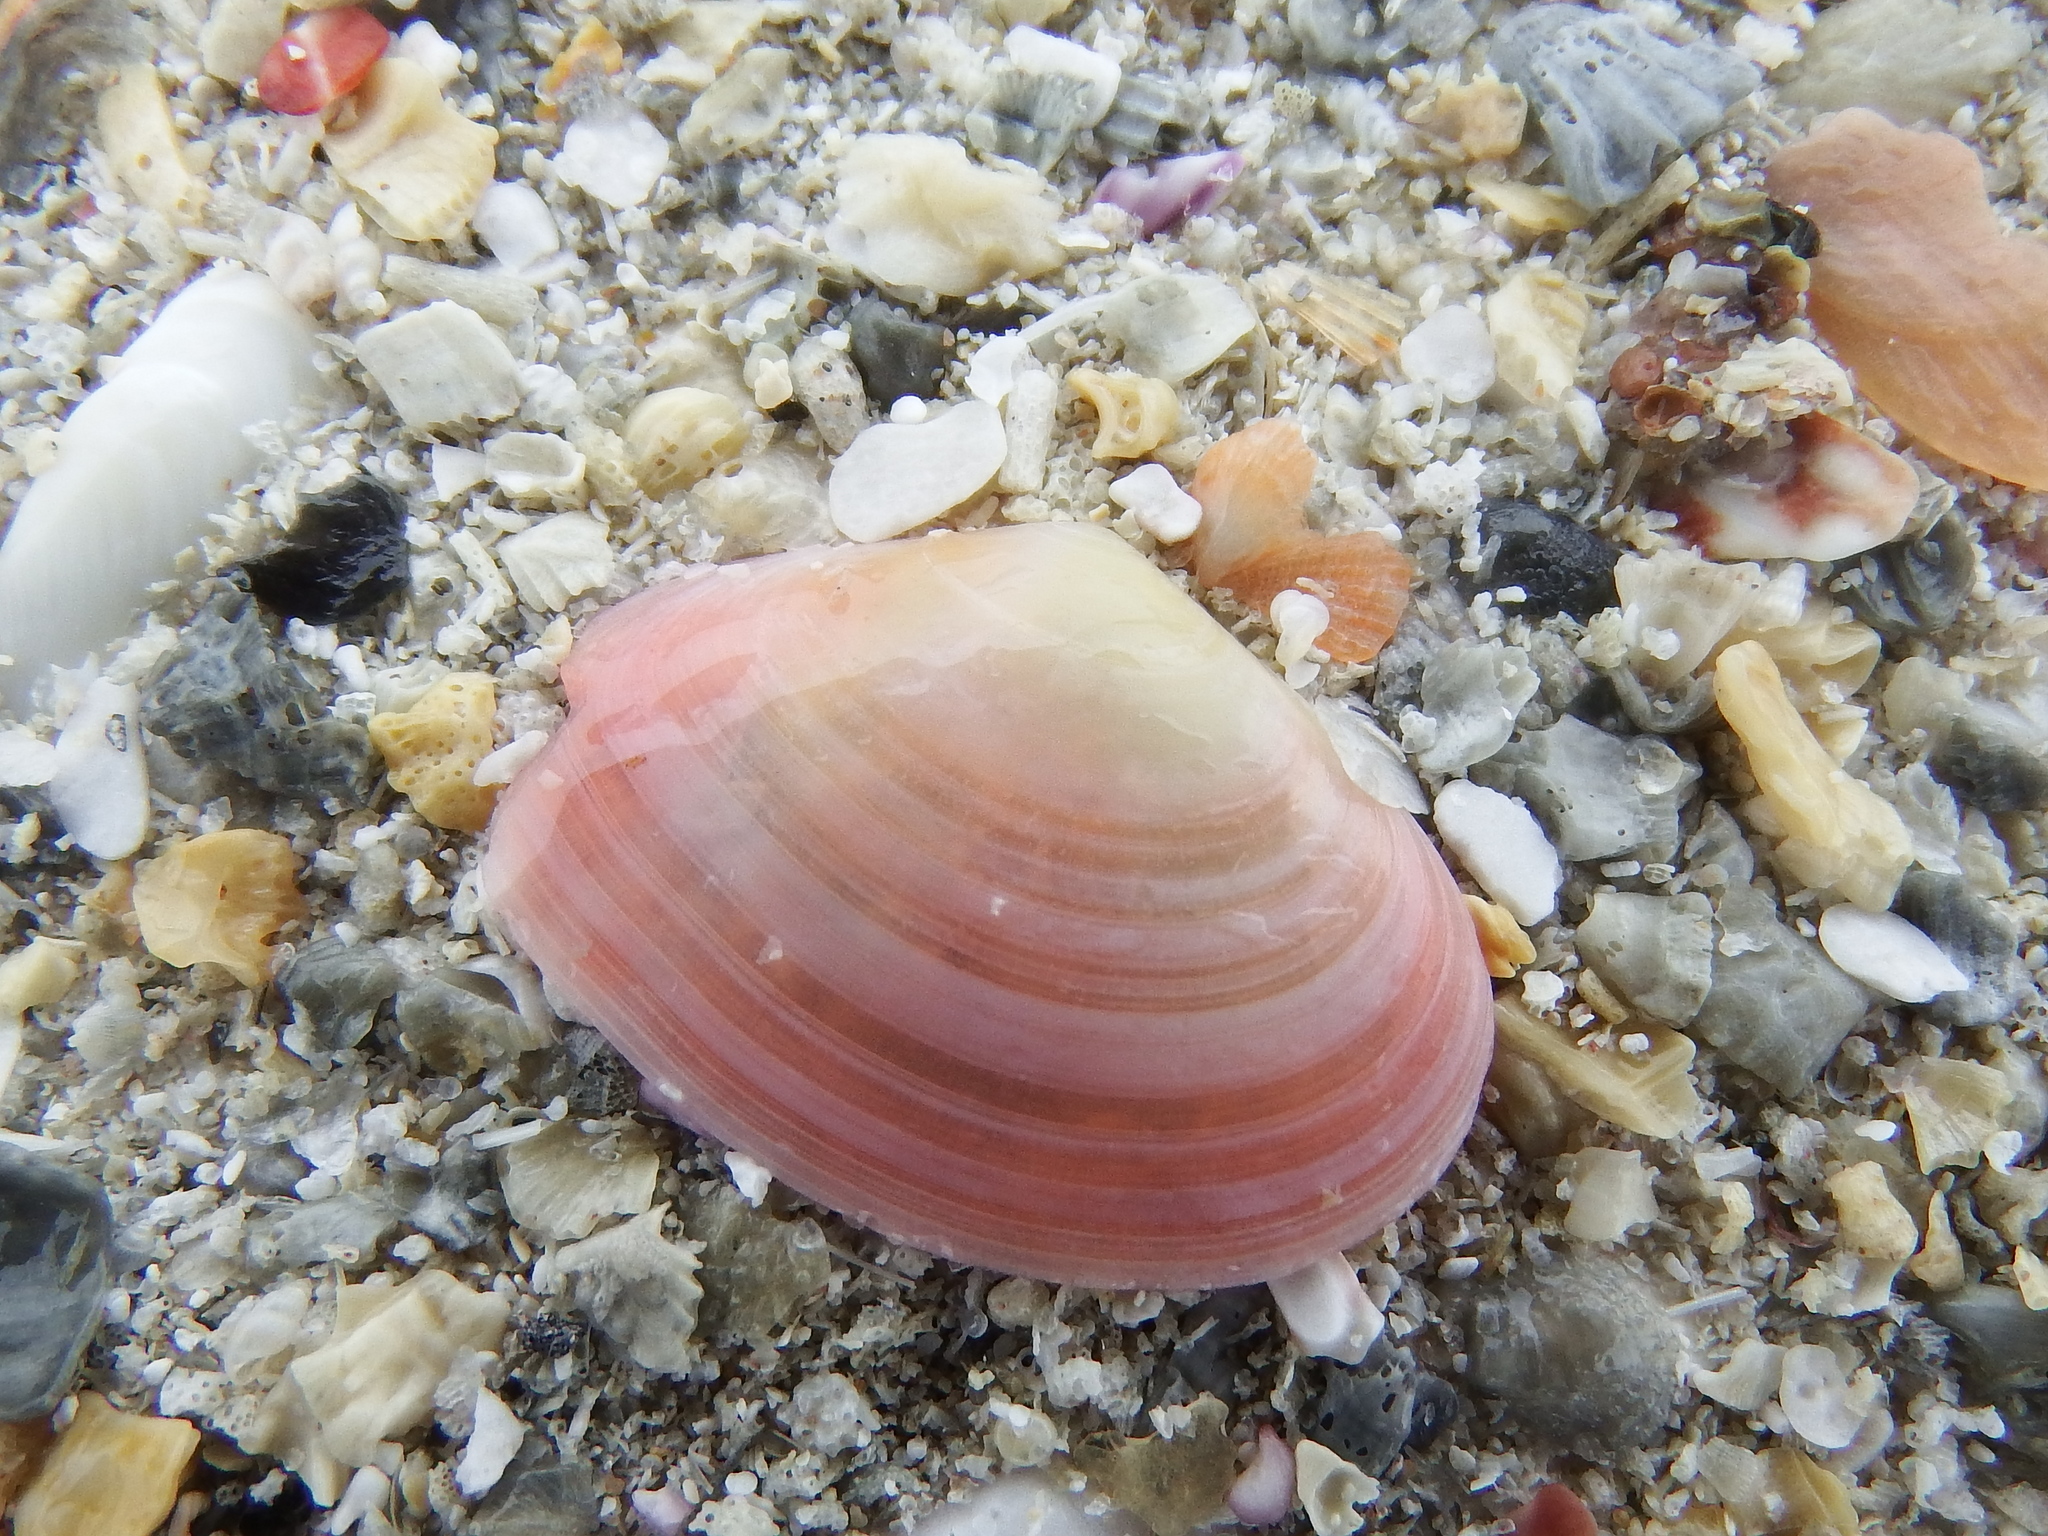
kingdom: Animalia
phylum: Mollusca
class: Bivalvia
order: Cardiida
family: Tellinidae
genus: Macomangulus
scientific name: Macomangulus tenuis
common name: Thin tellin
